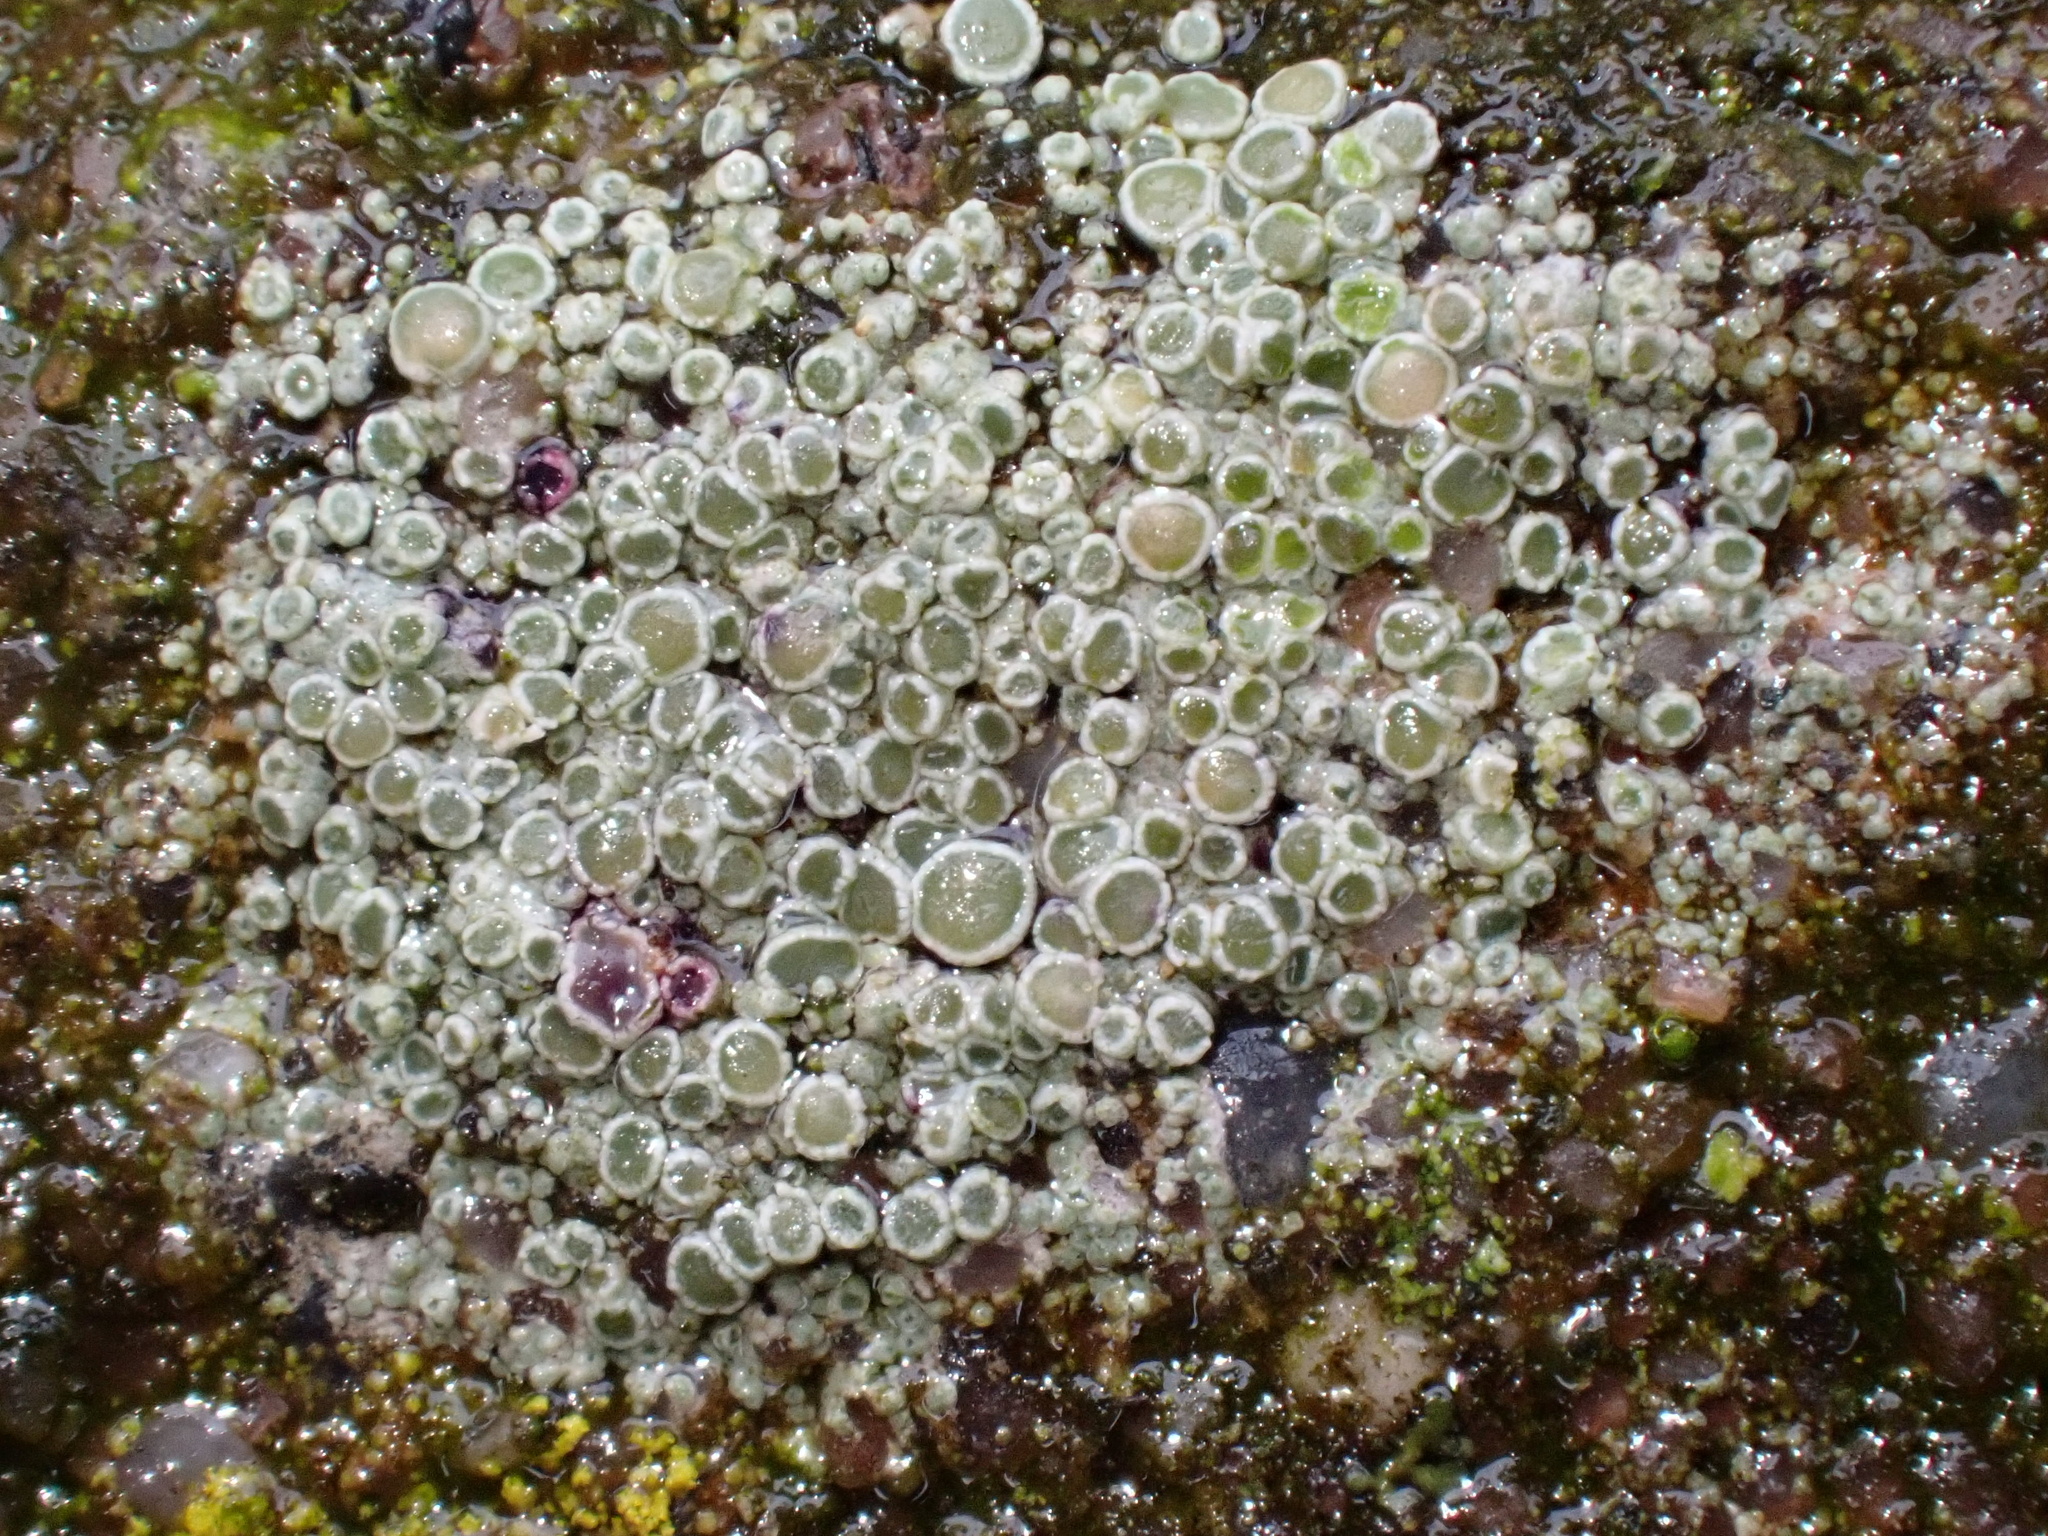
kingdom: Fungi
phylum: Ascomycota
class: Lecanoromycetes
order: Lecanorales
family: Lecanoraceae
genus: Polyozosia
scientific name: Polyozosia albescens
